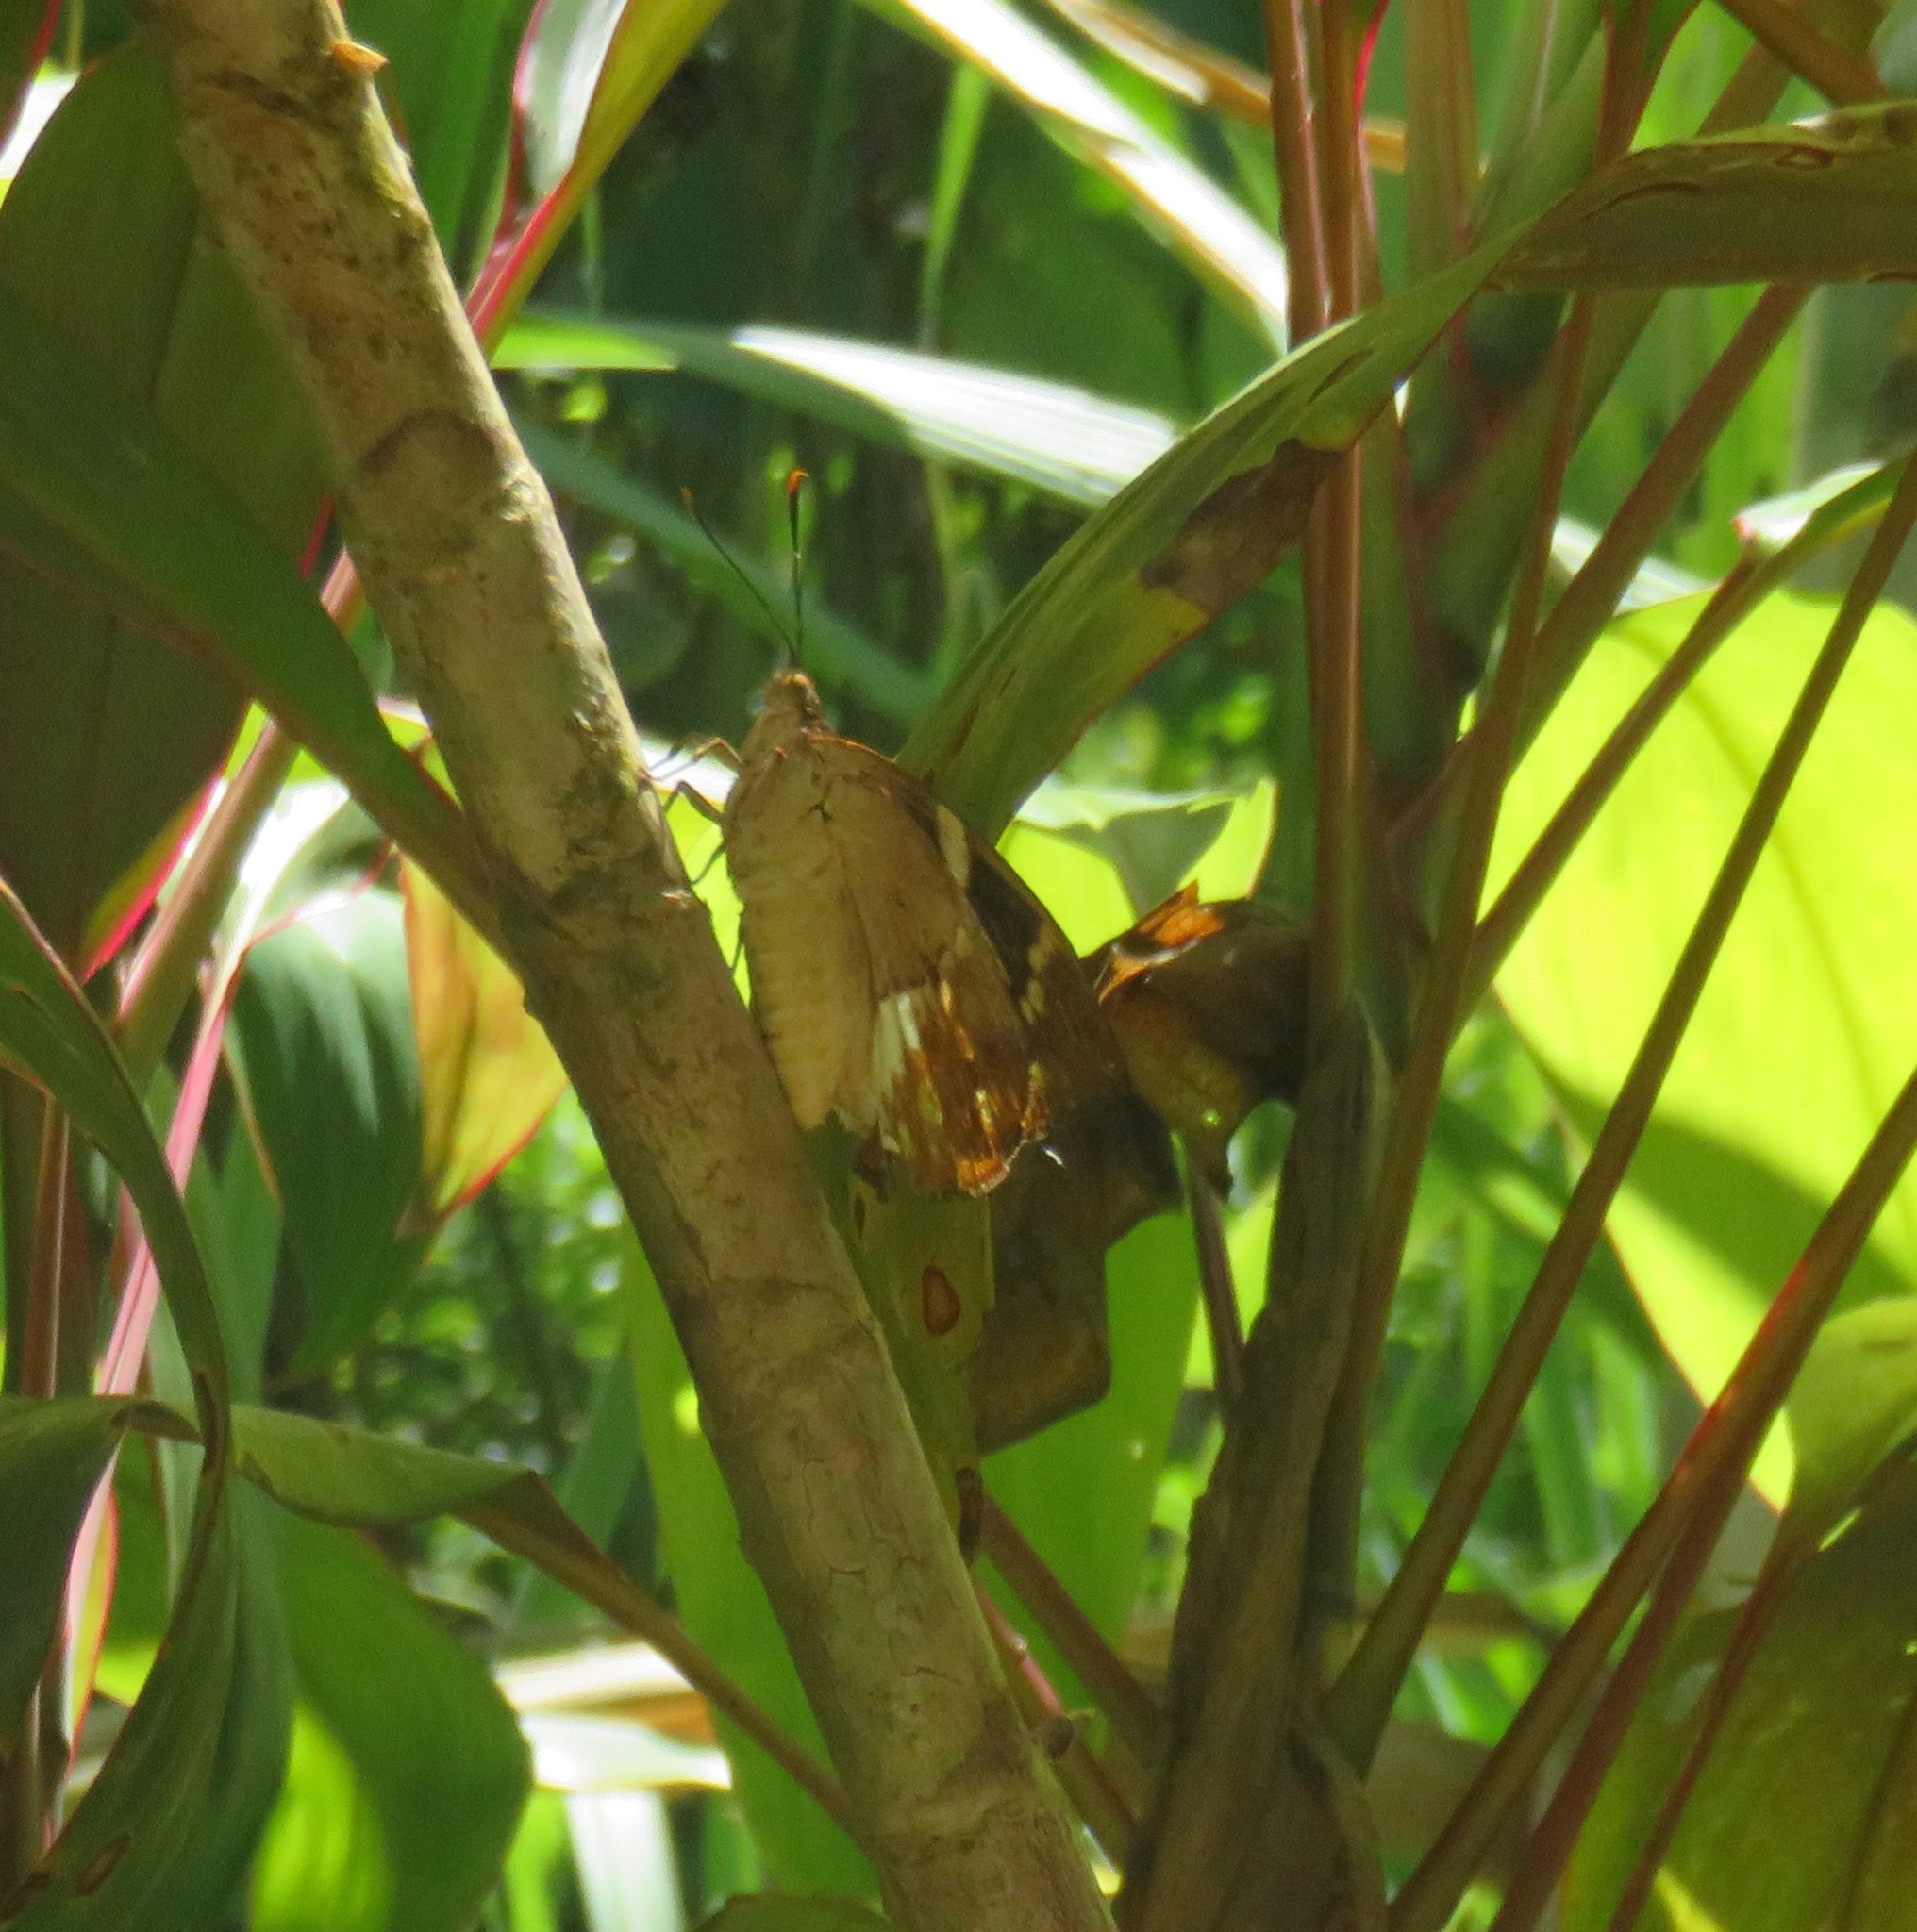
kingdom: Animalia
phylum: Arthropoda
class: Insecta
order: Lepidoptera
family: Castniidae
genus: Castniomera
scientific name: Castniomera atymnius
